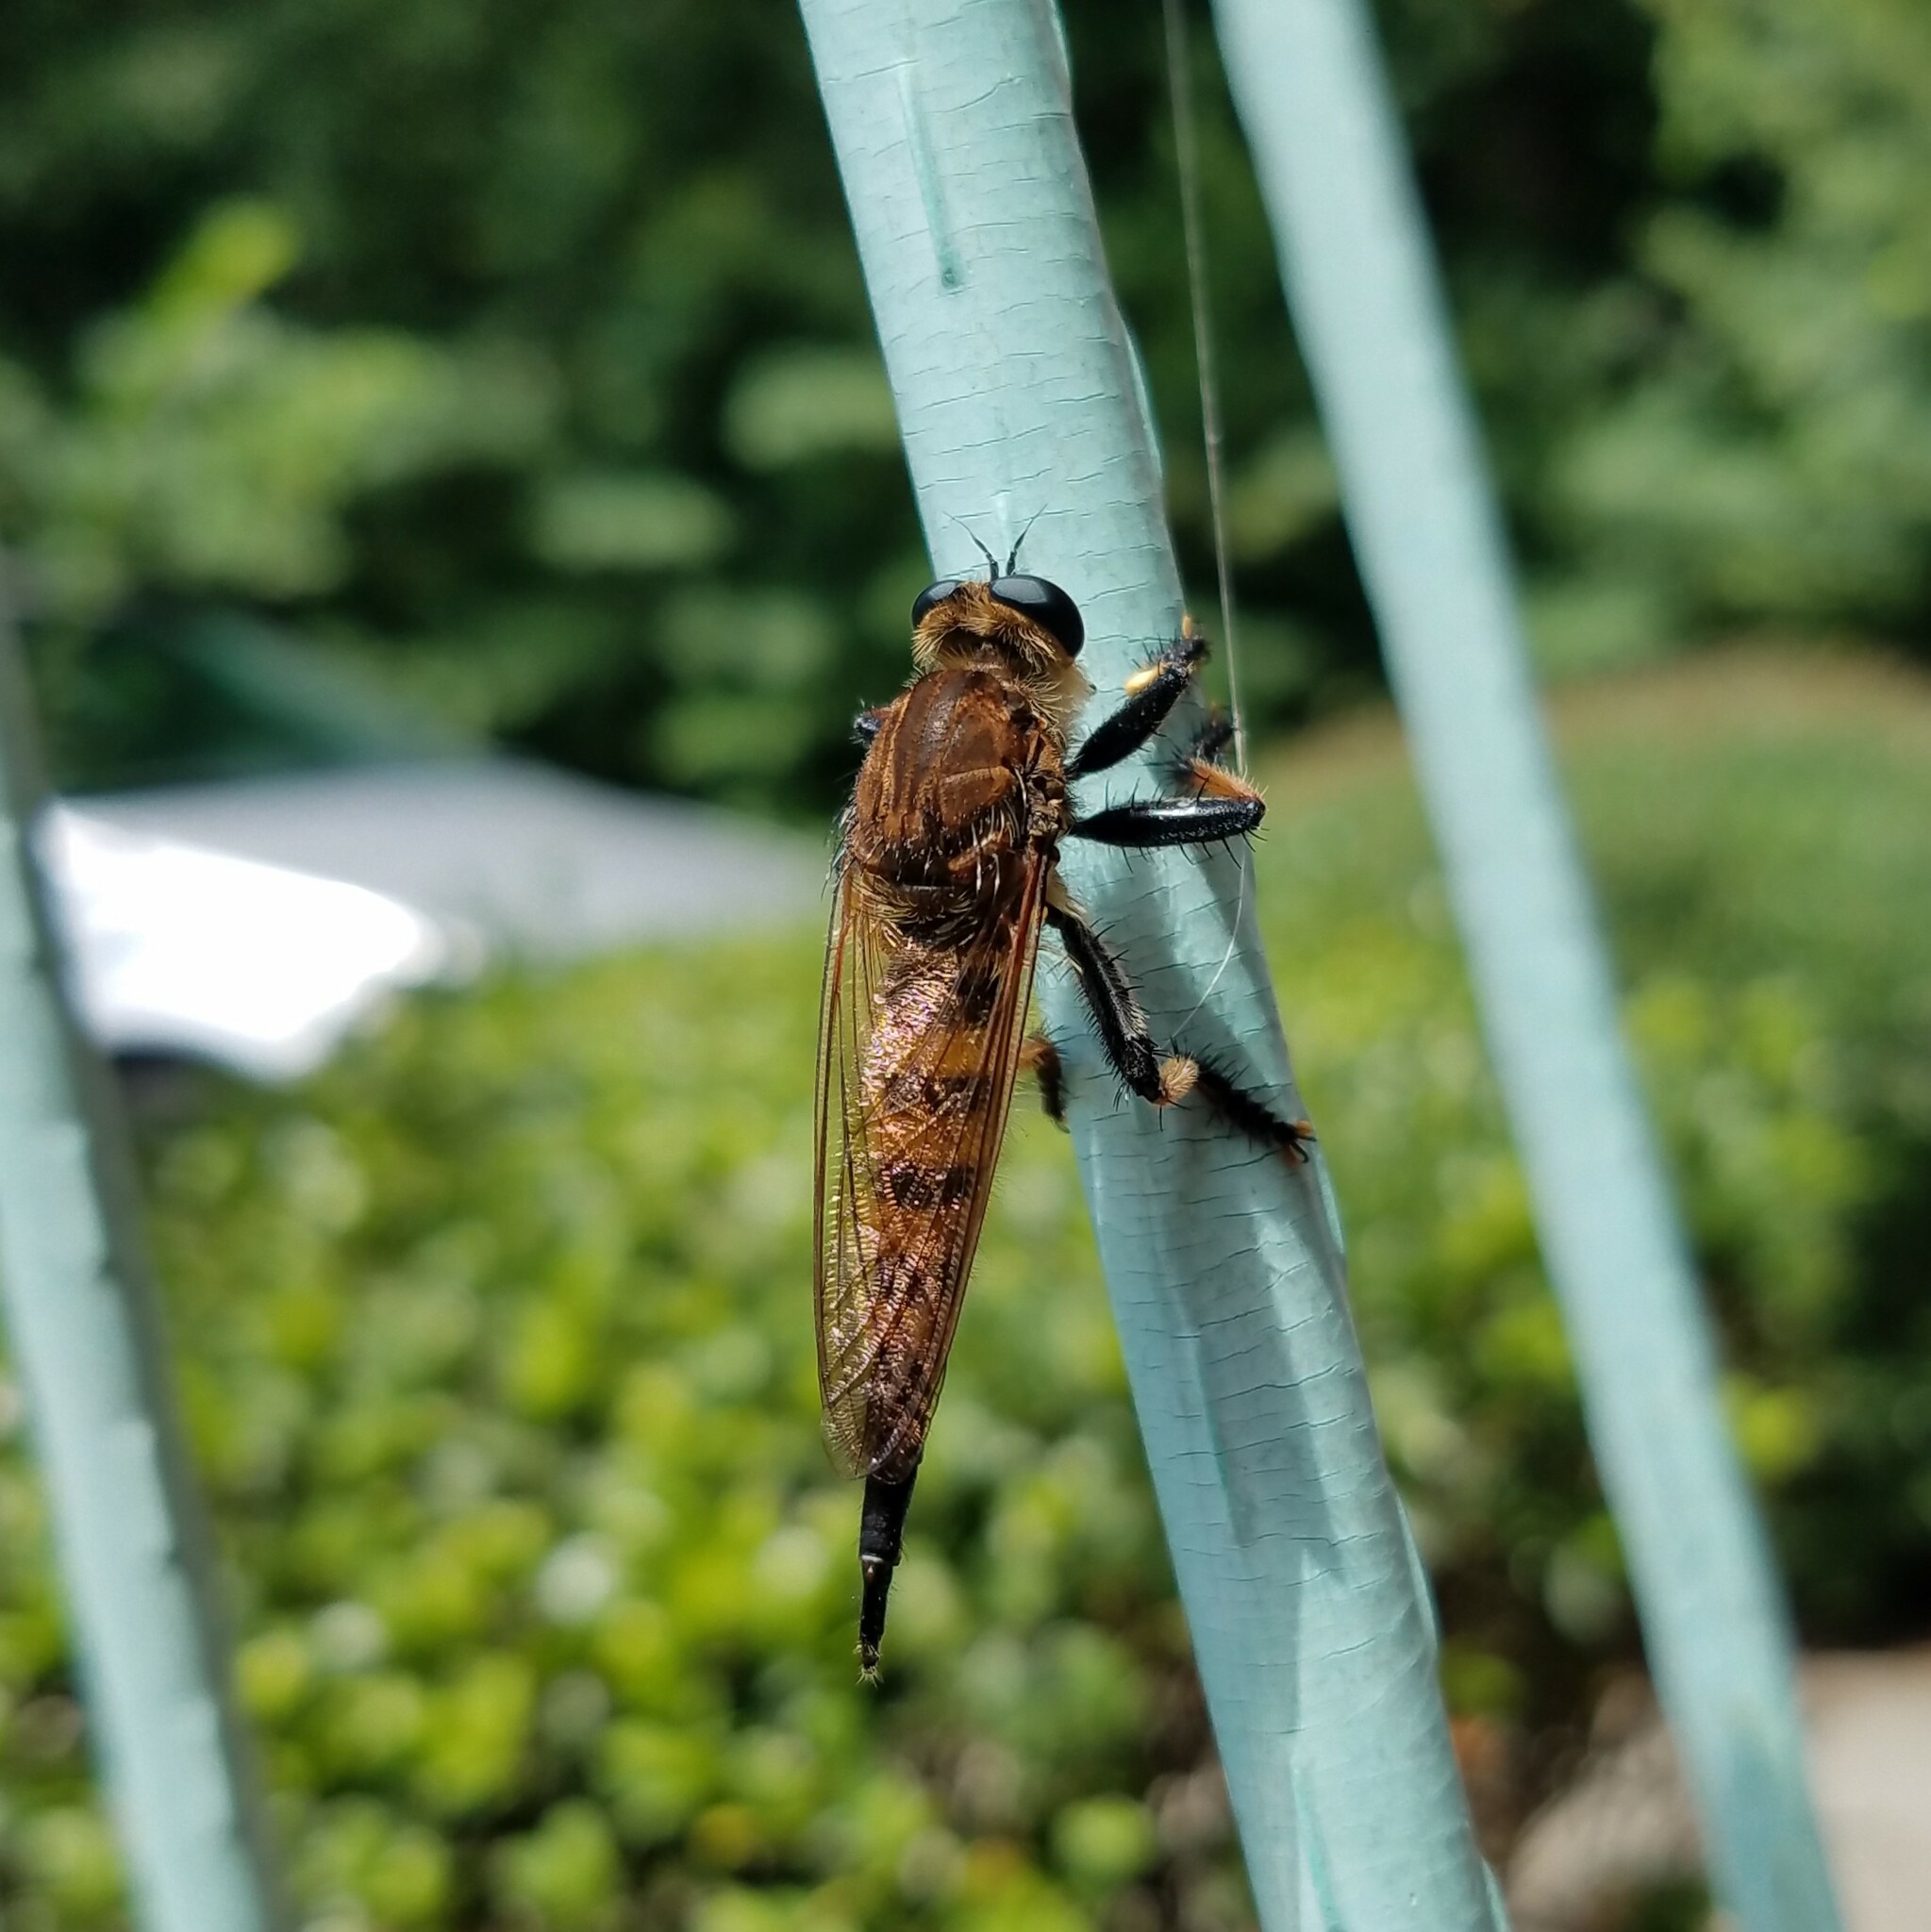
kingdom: Animalia
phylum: Arthropoda
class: Insecta
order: Diptera
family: Asilidae
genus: Promachus
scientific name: Promachus rufipes
